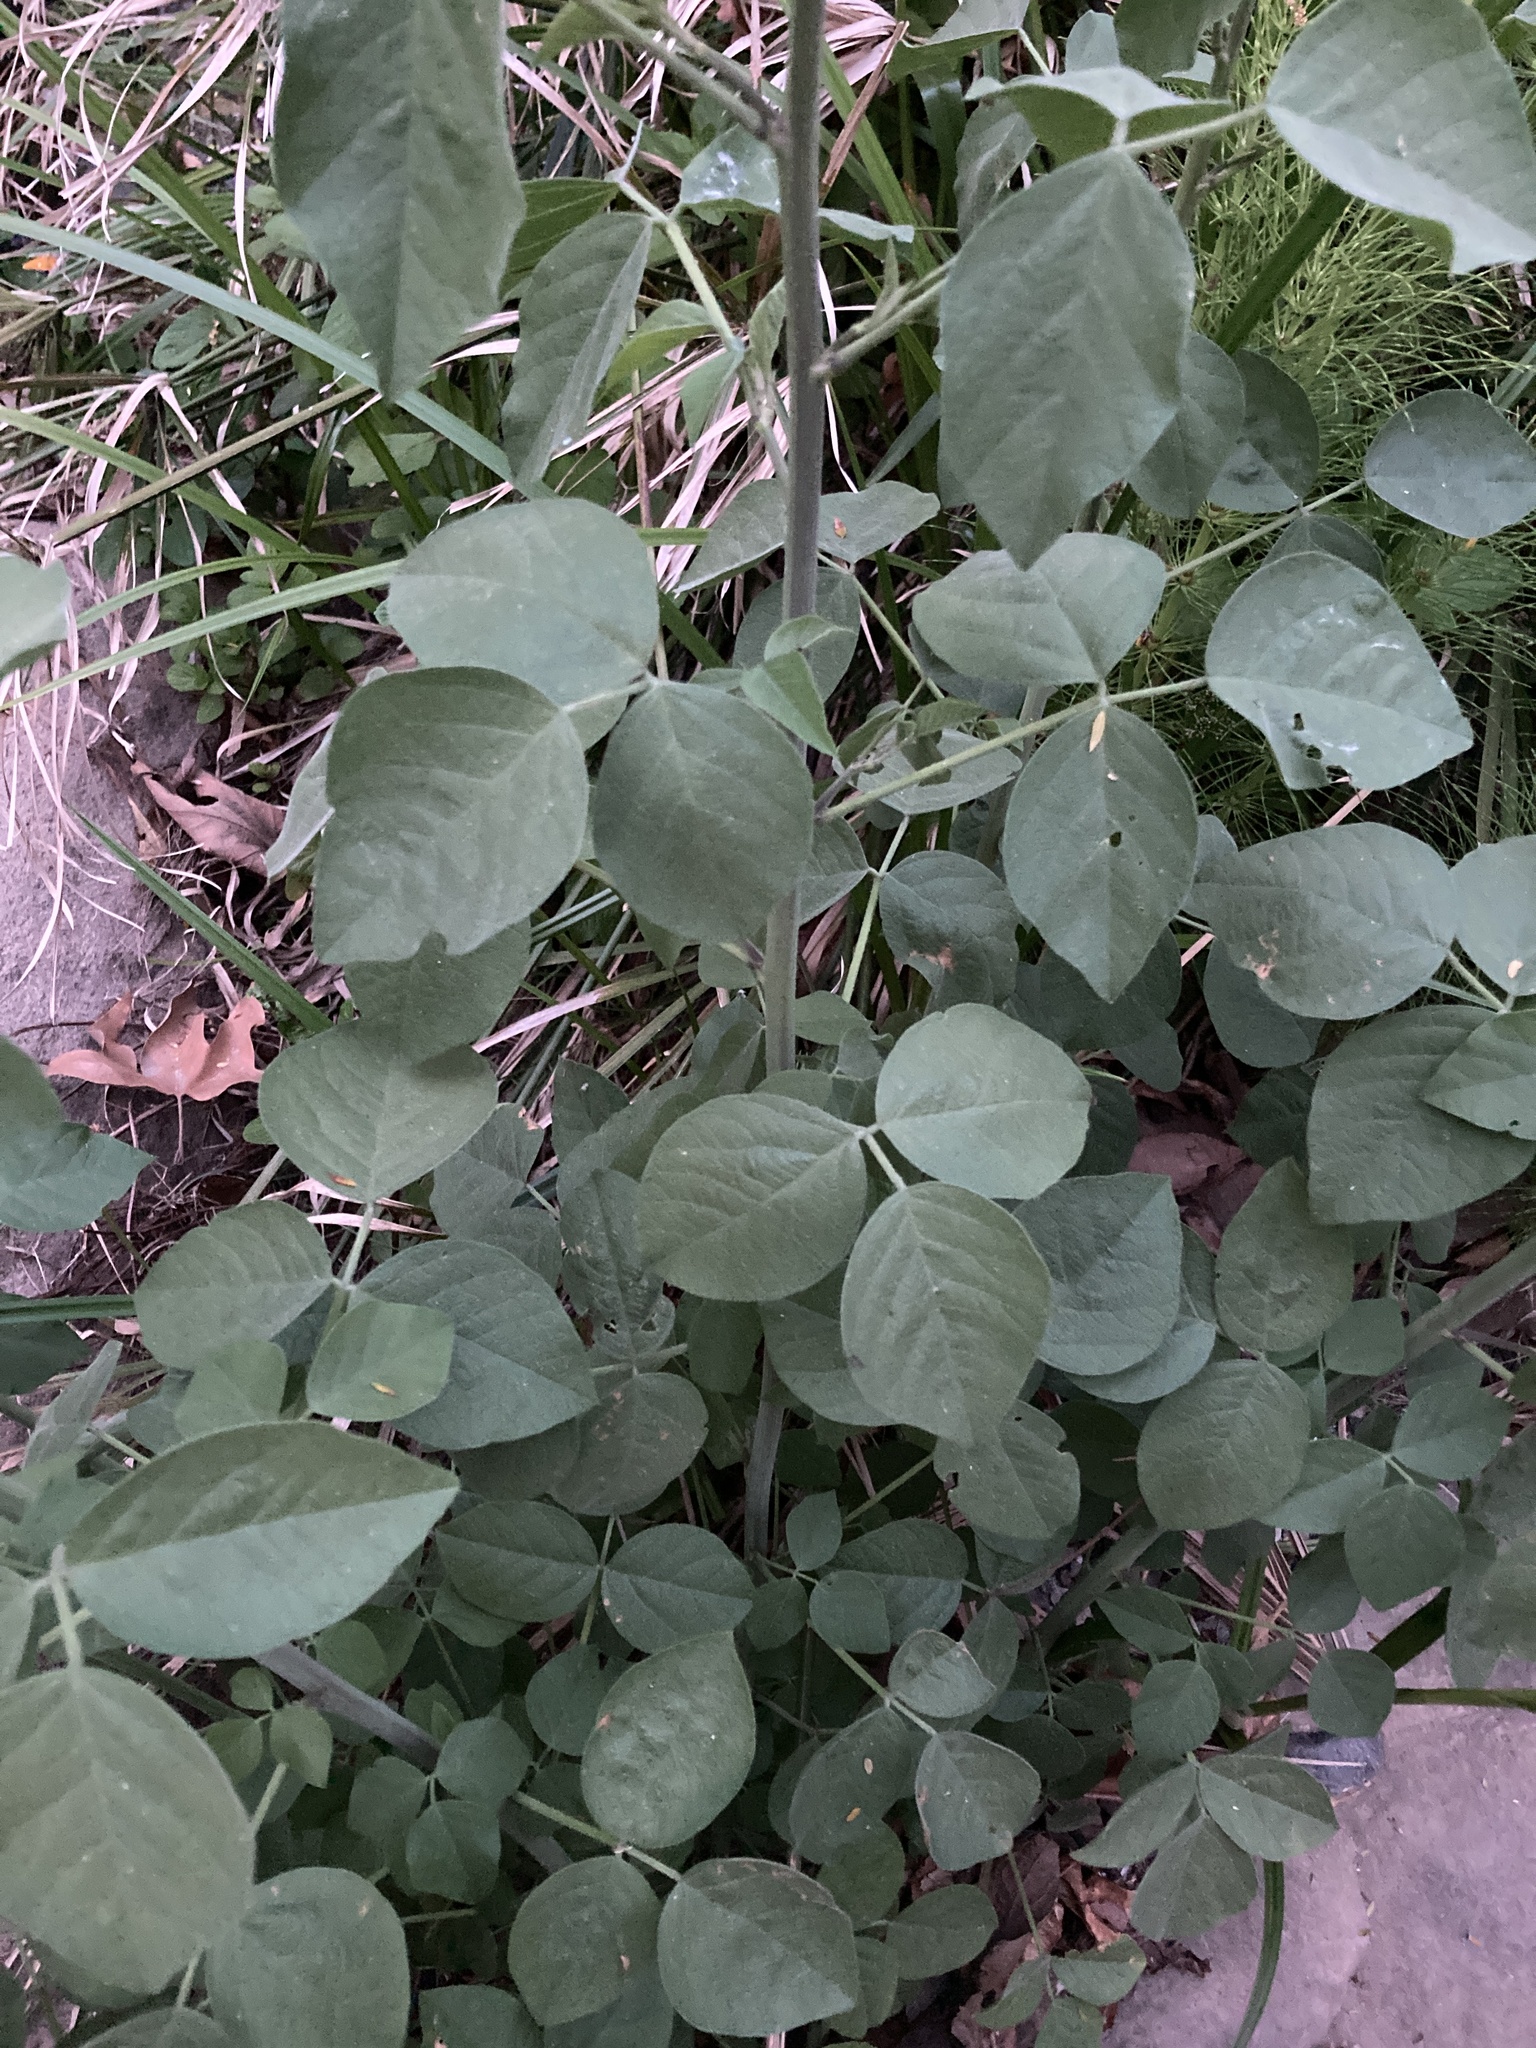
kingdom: Plantae
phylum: Tracheophyta
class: Magnoliopsida
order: Fabales
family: Fabaceae
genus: Hoita
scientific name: Hoita macrostachya
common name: Leatherroot
